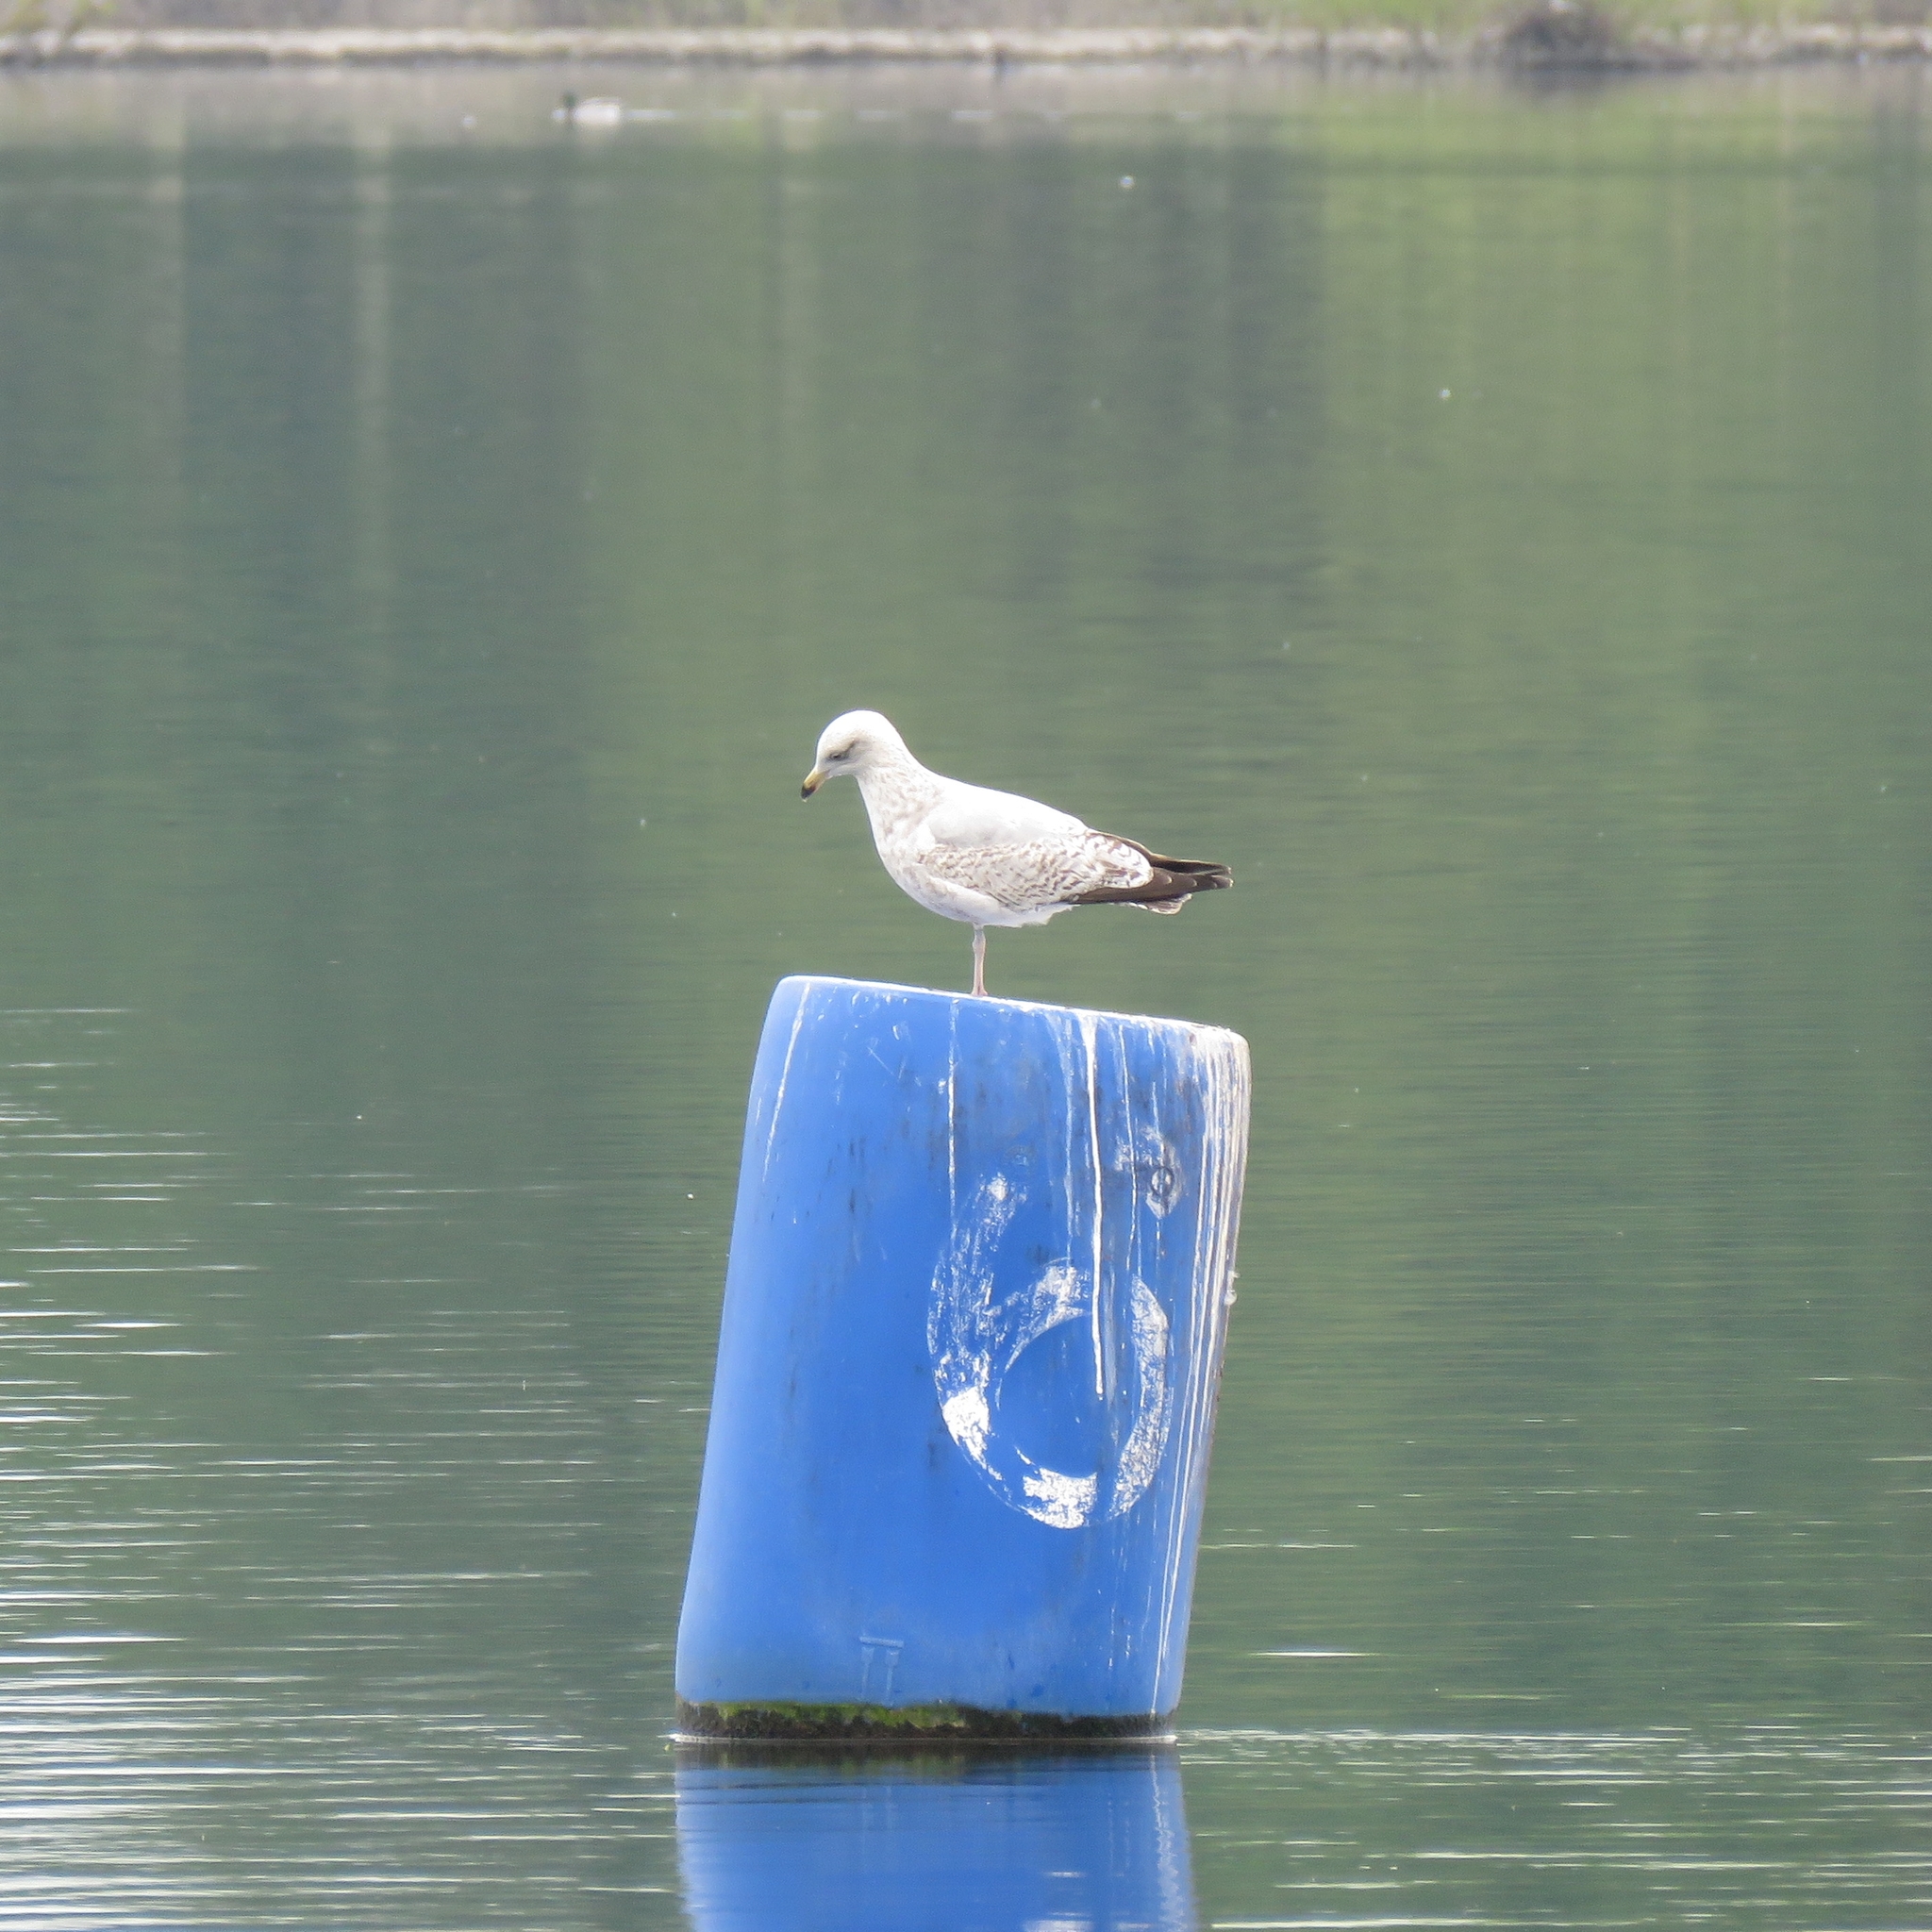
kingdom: Animalia
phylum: Chordata
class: Aves
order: Charadriiformes
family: Laridae
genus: Larus
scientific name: Larus argentatus
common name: Herring gull
